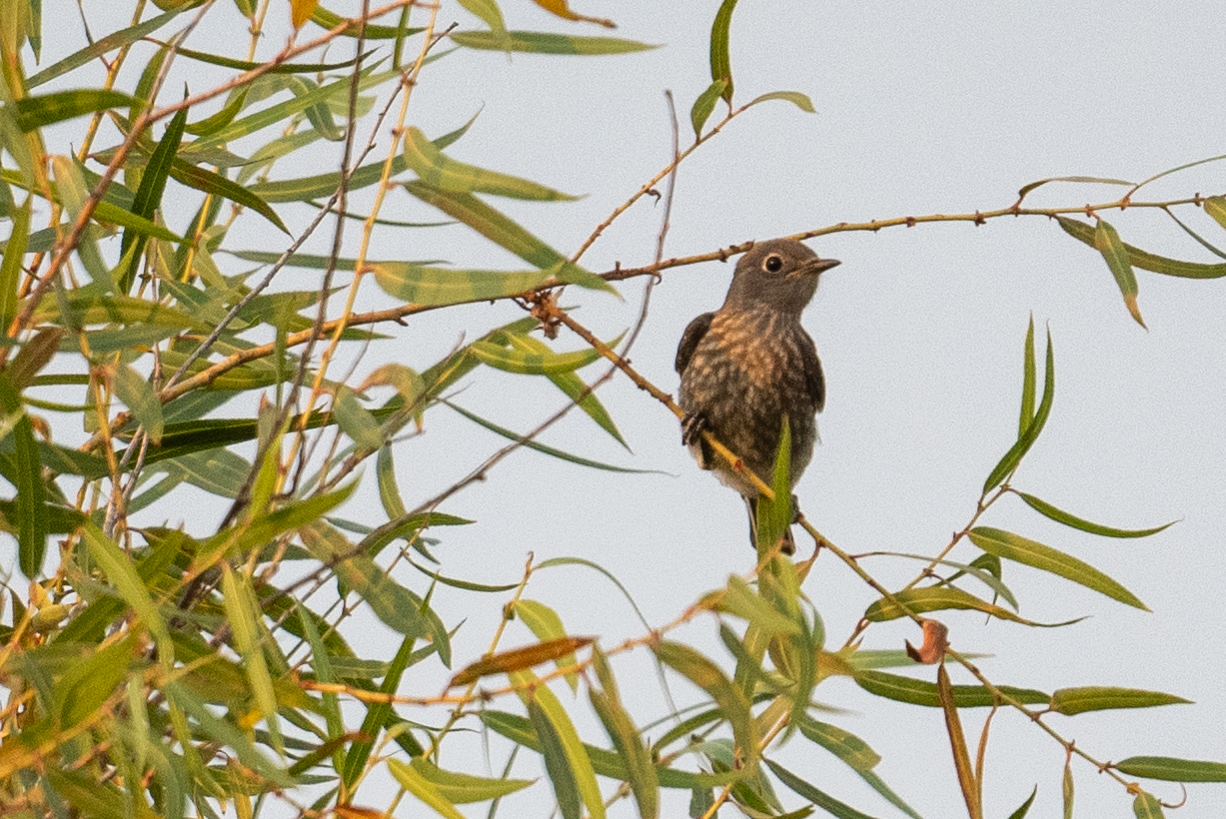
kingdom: Animalia
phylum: Chordata
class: Aves
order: Passeriformes
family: Turdidae
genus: Sialia
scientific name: Sialia mexicana
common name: Western bluebird
